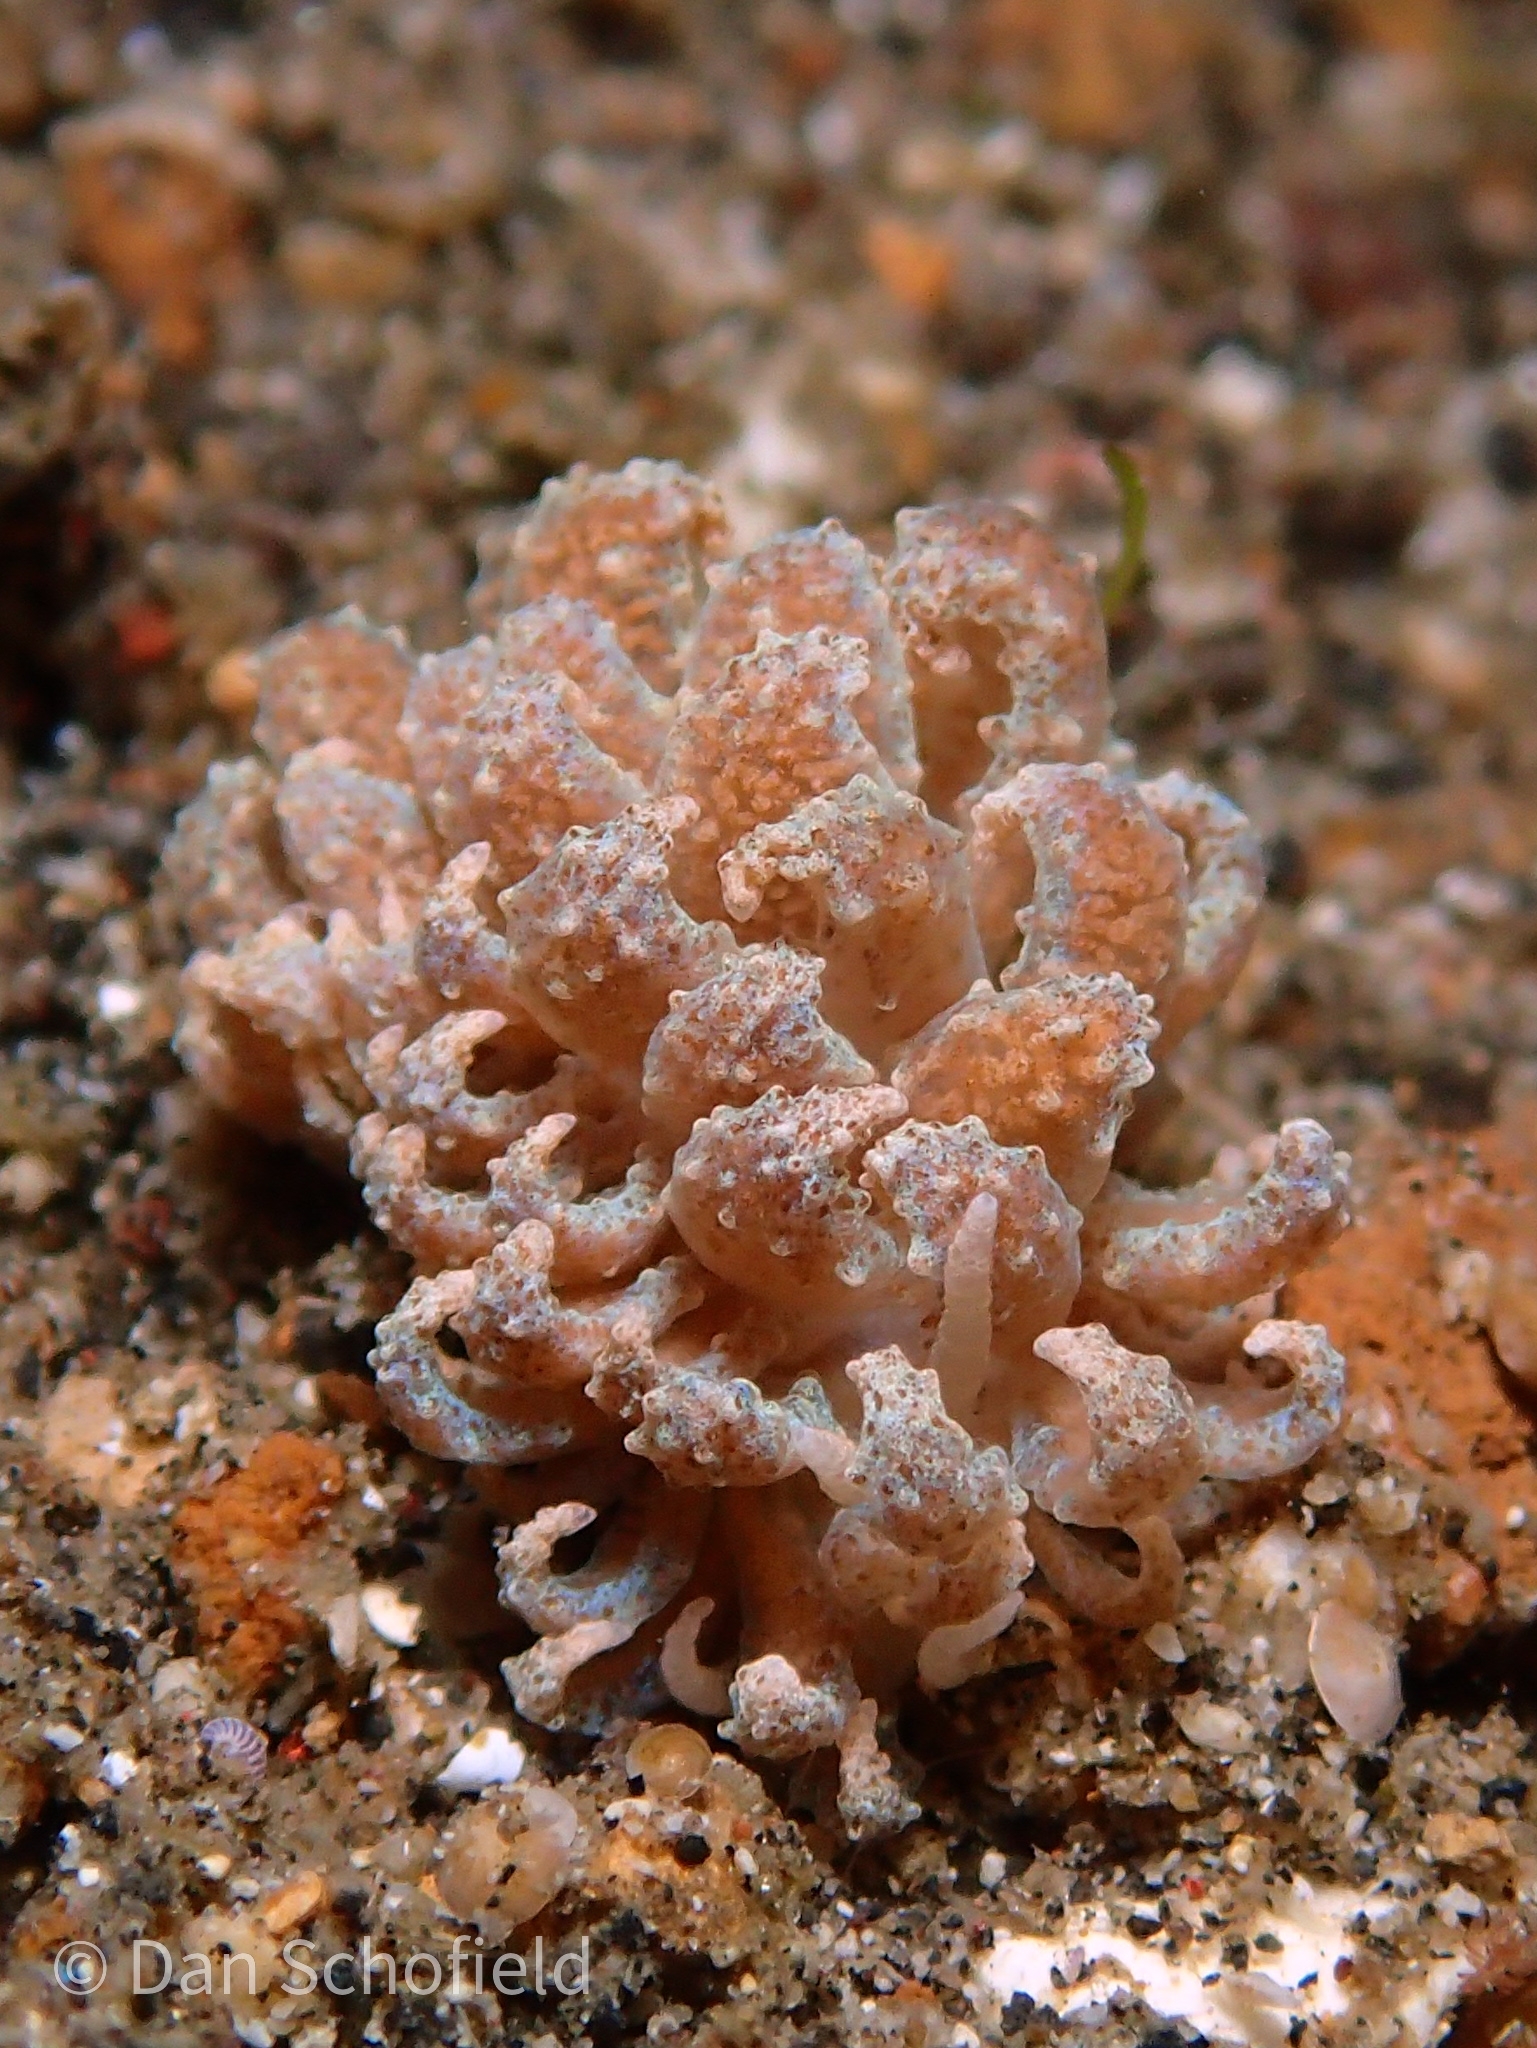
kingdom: Animalia
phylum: Mollusca
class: Gastropoda
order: Nudibranchia
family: Myrrhinidae
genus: Phyllodesmium
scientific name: Phyllodesmium crypticum
